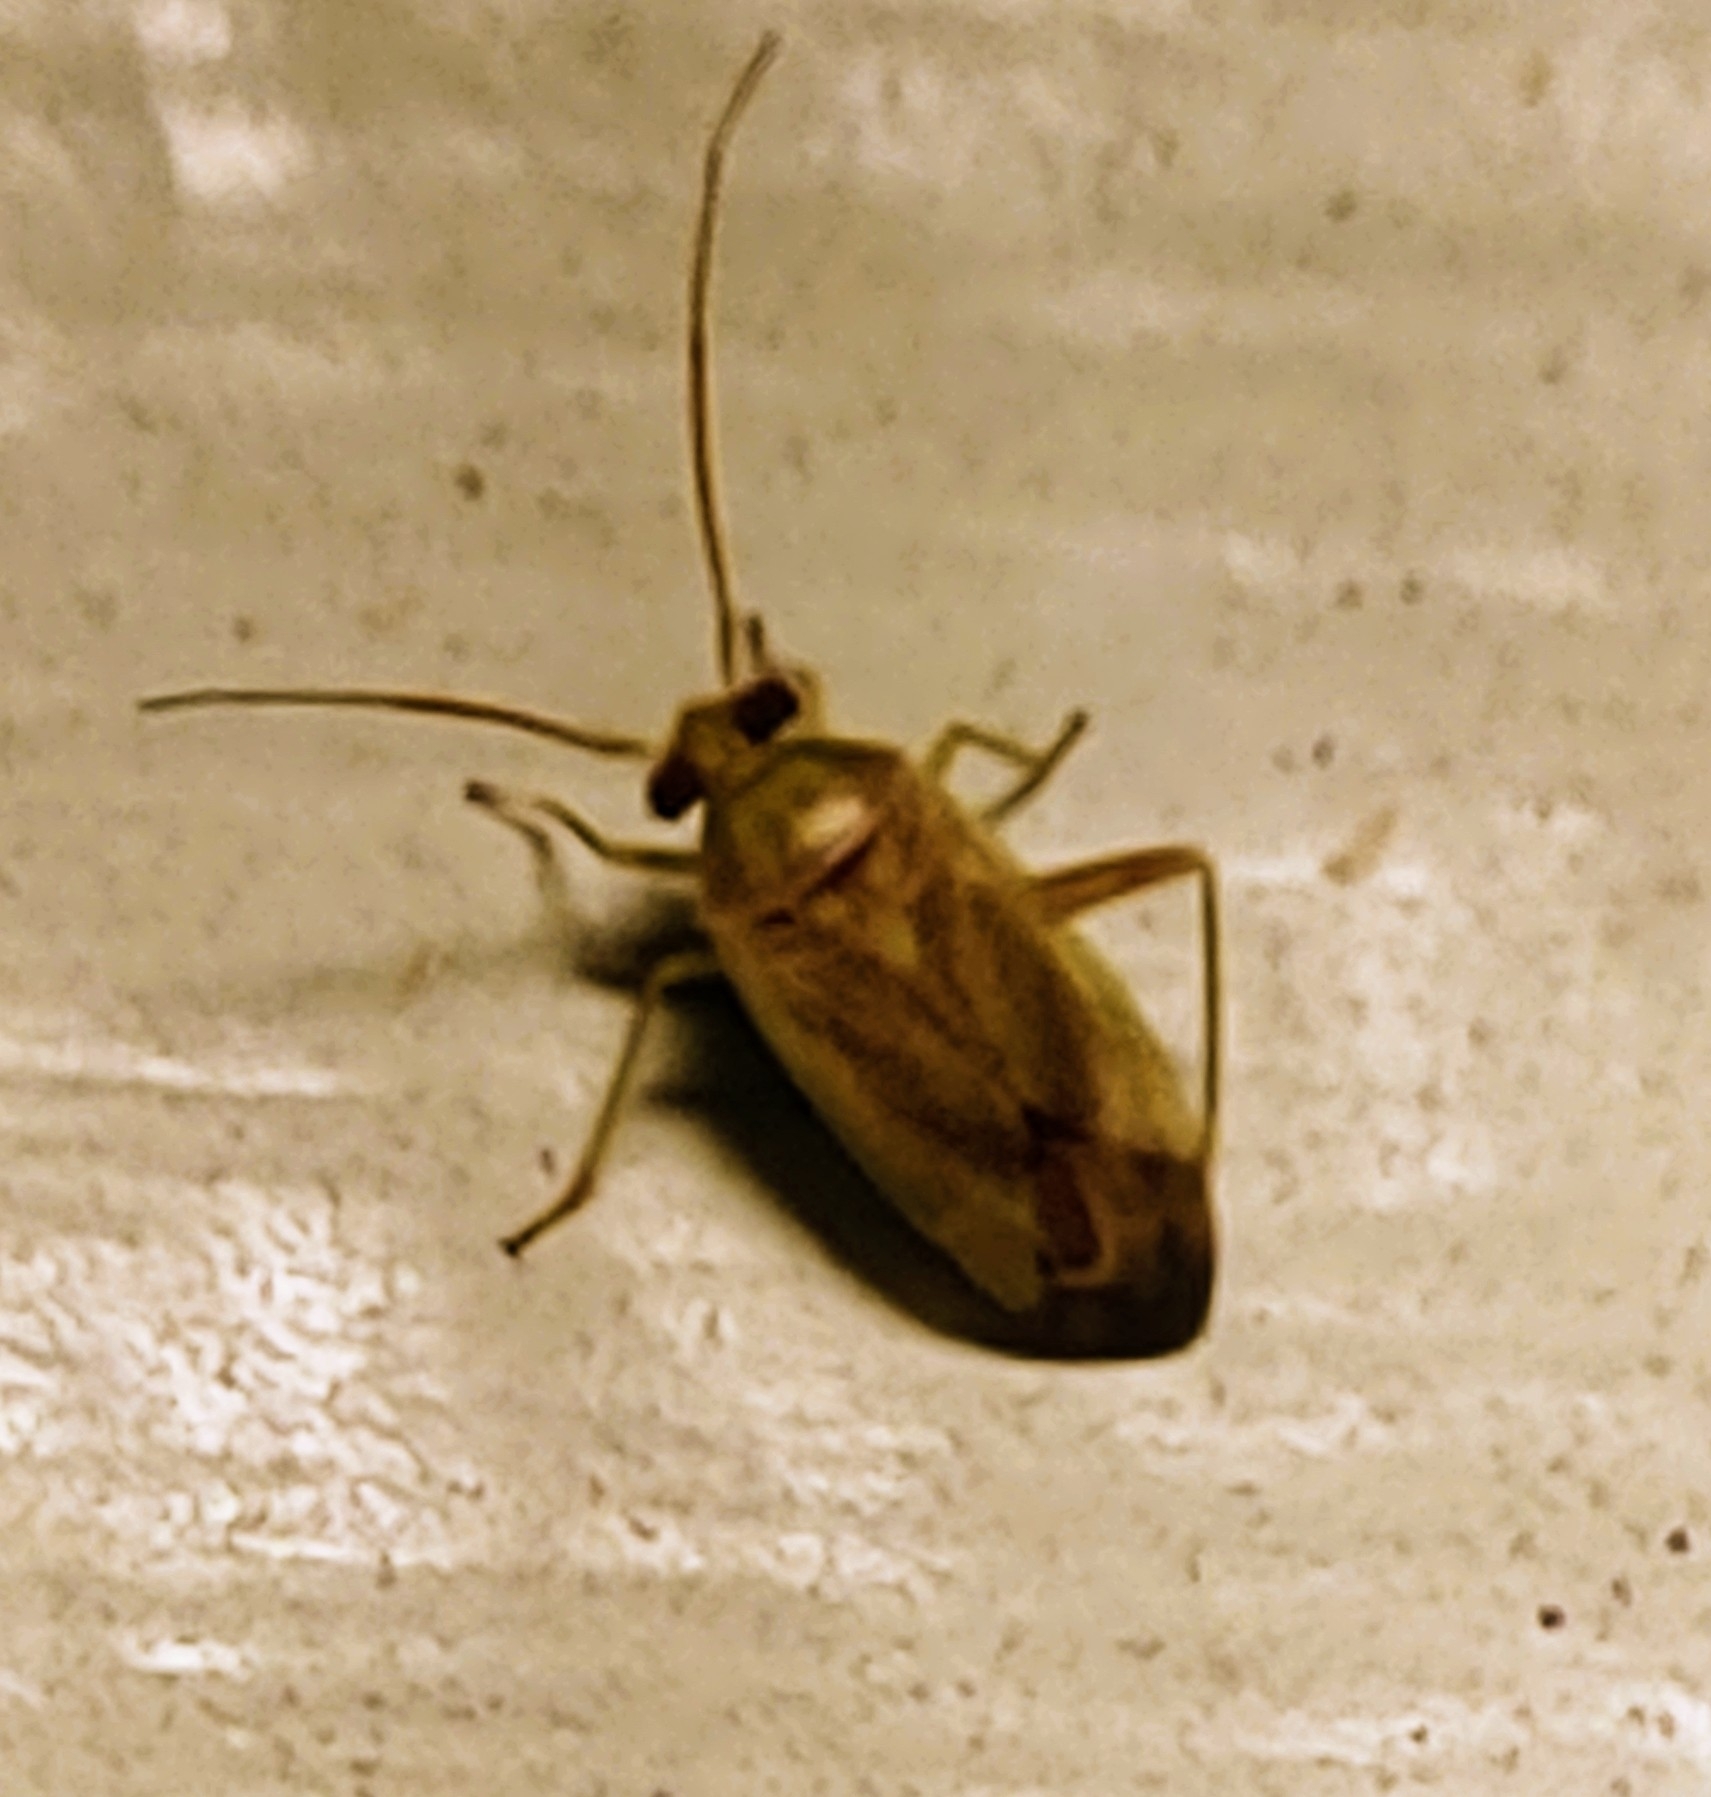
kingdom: Animalia
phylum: Arthropoda
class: Insecta
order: Hemiptera
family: Miridae
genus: Taylorilygus
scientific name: Taylorilygus apicalis
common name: Plant bug
